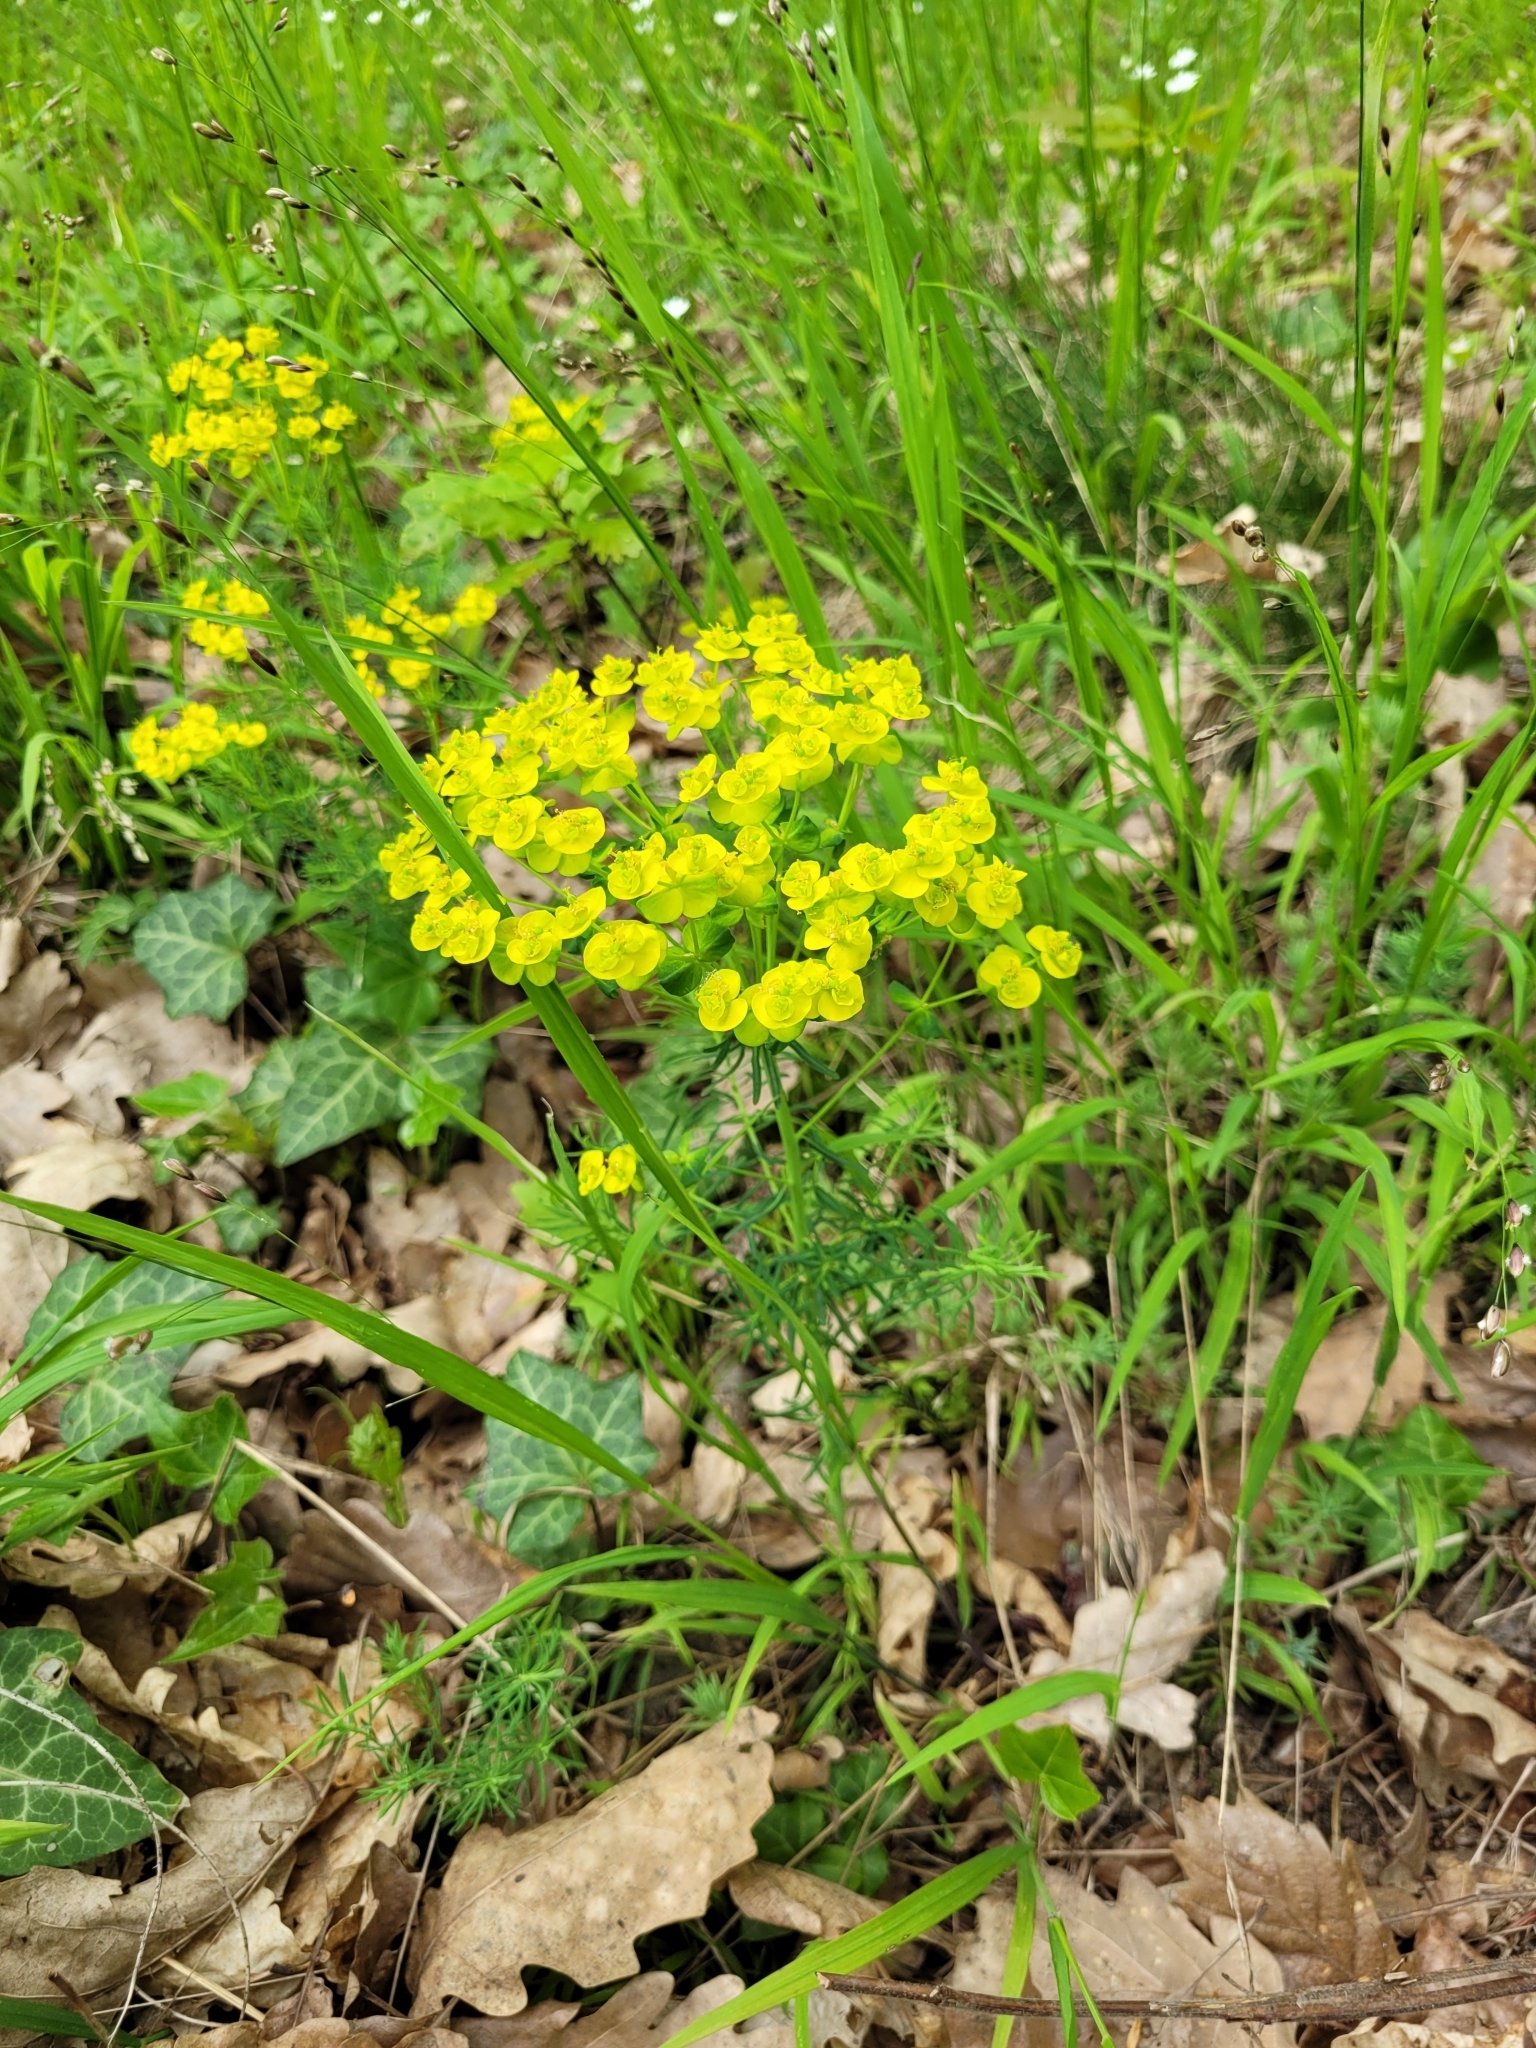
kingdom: Plantae
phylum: Tracheophyta
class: Magnoliopsida
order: Malpighiales
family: Euphorbiaceae
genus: Euphorbia
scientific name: Euphorbia cyparissias
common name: Cypress spurge
